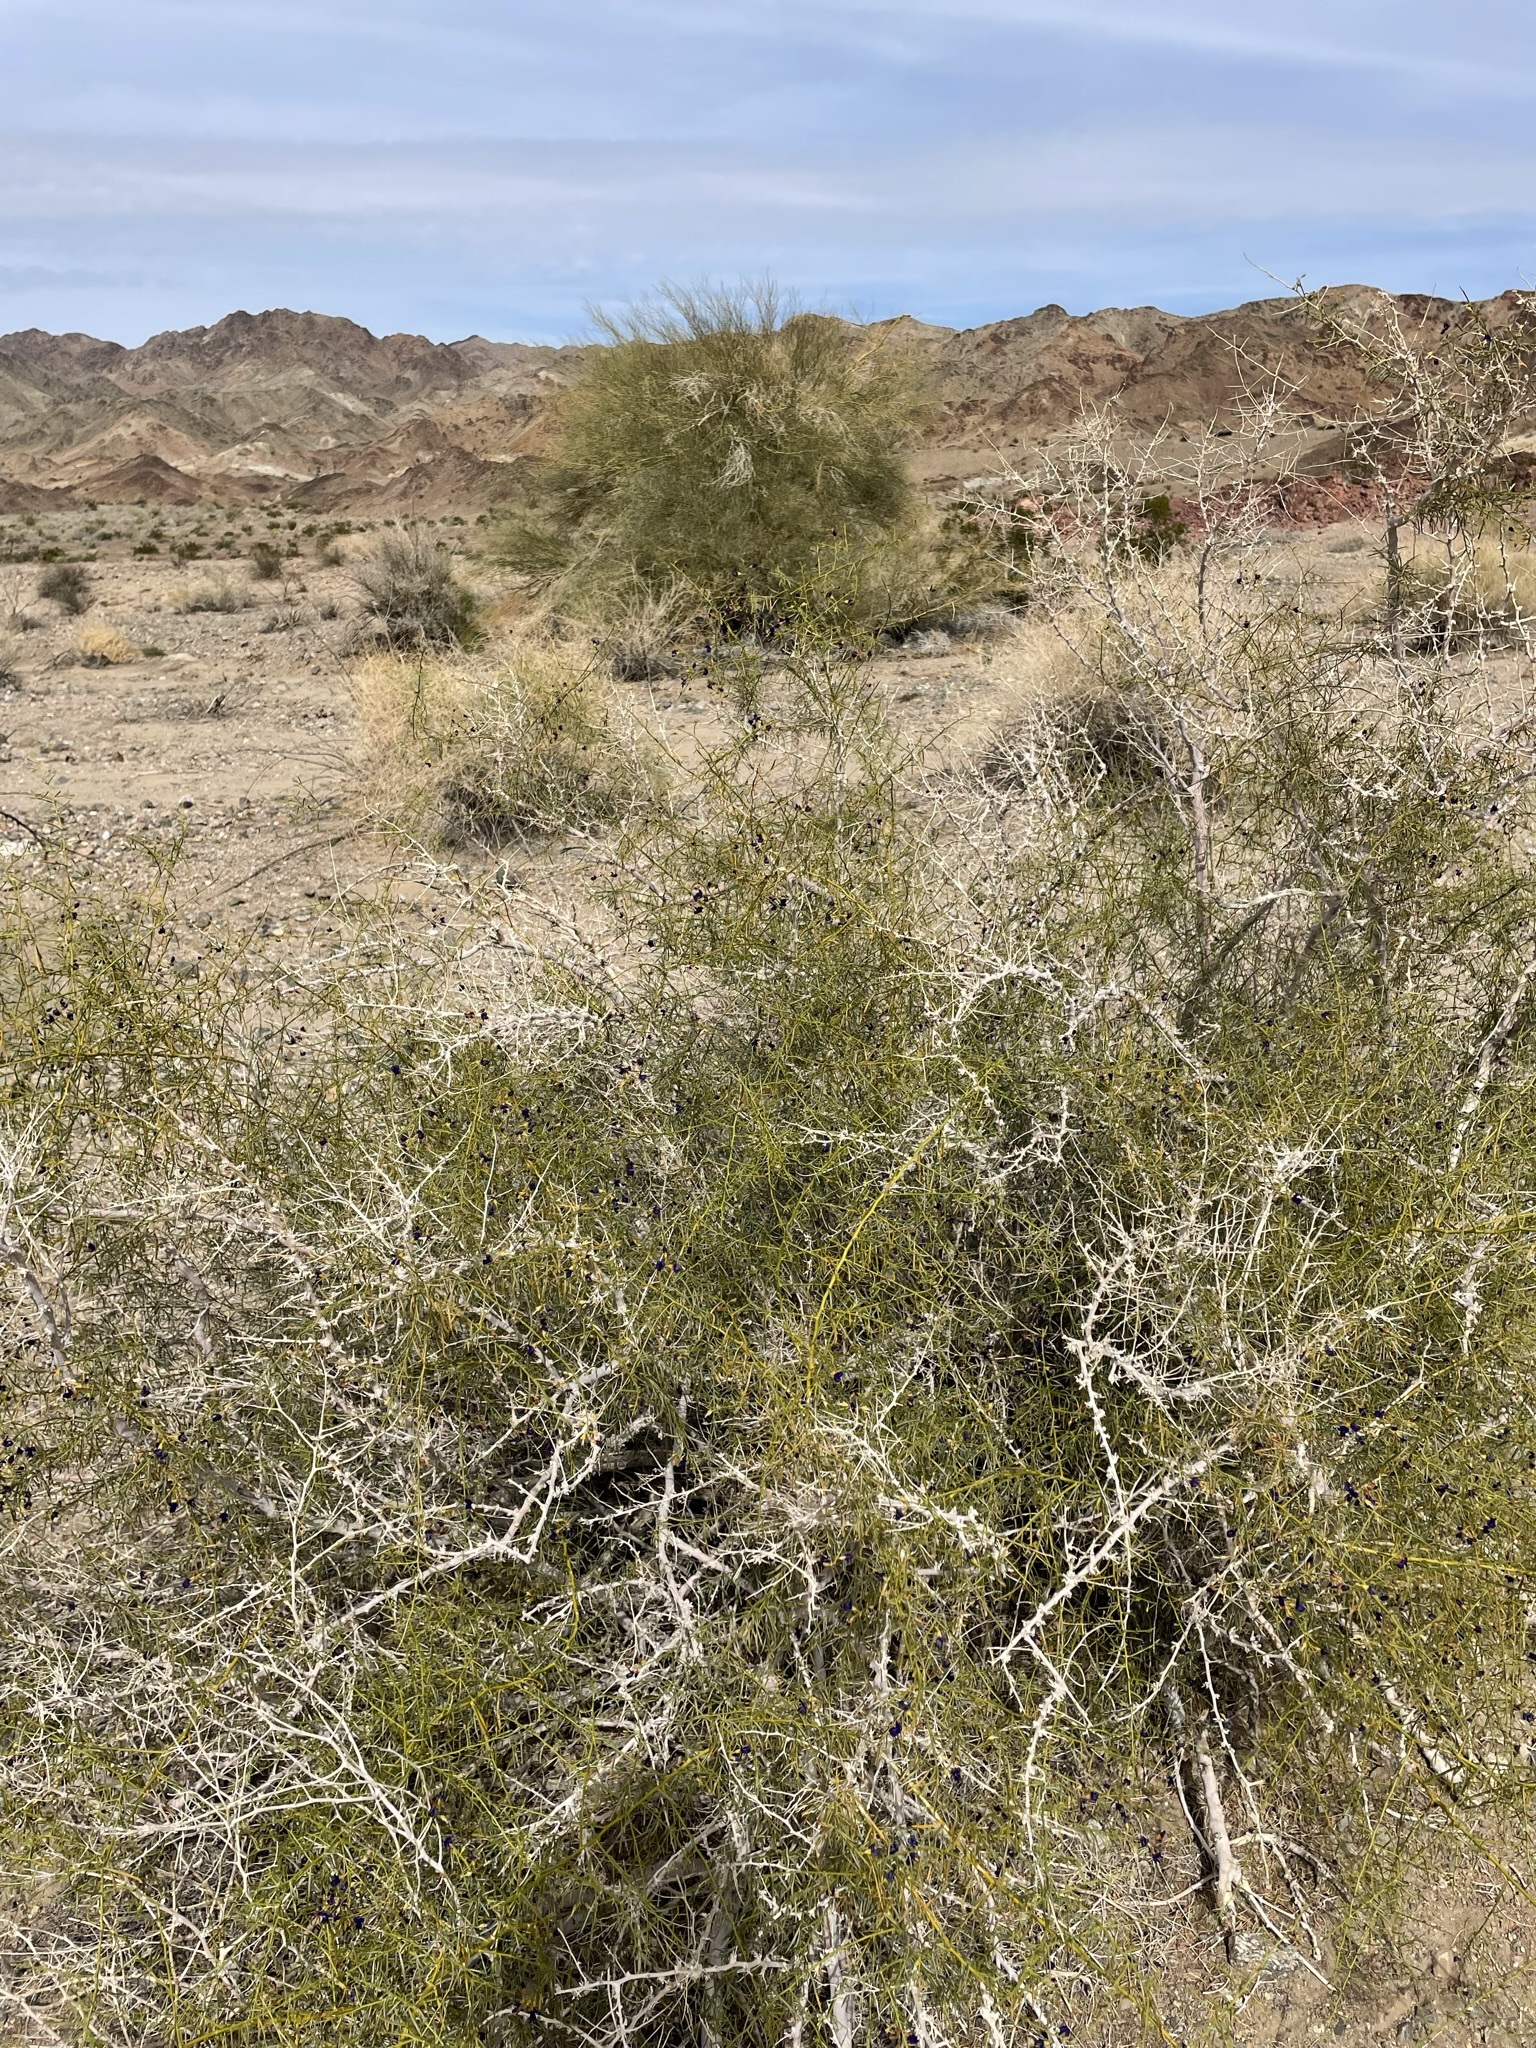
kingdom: Plantae
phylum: Tracheophyta
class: Magnoliopsida
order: Fabales
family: Fabaceae
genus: Psorothamnus
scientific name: Psorothamnus schottii
